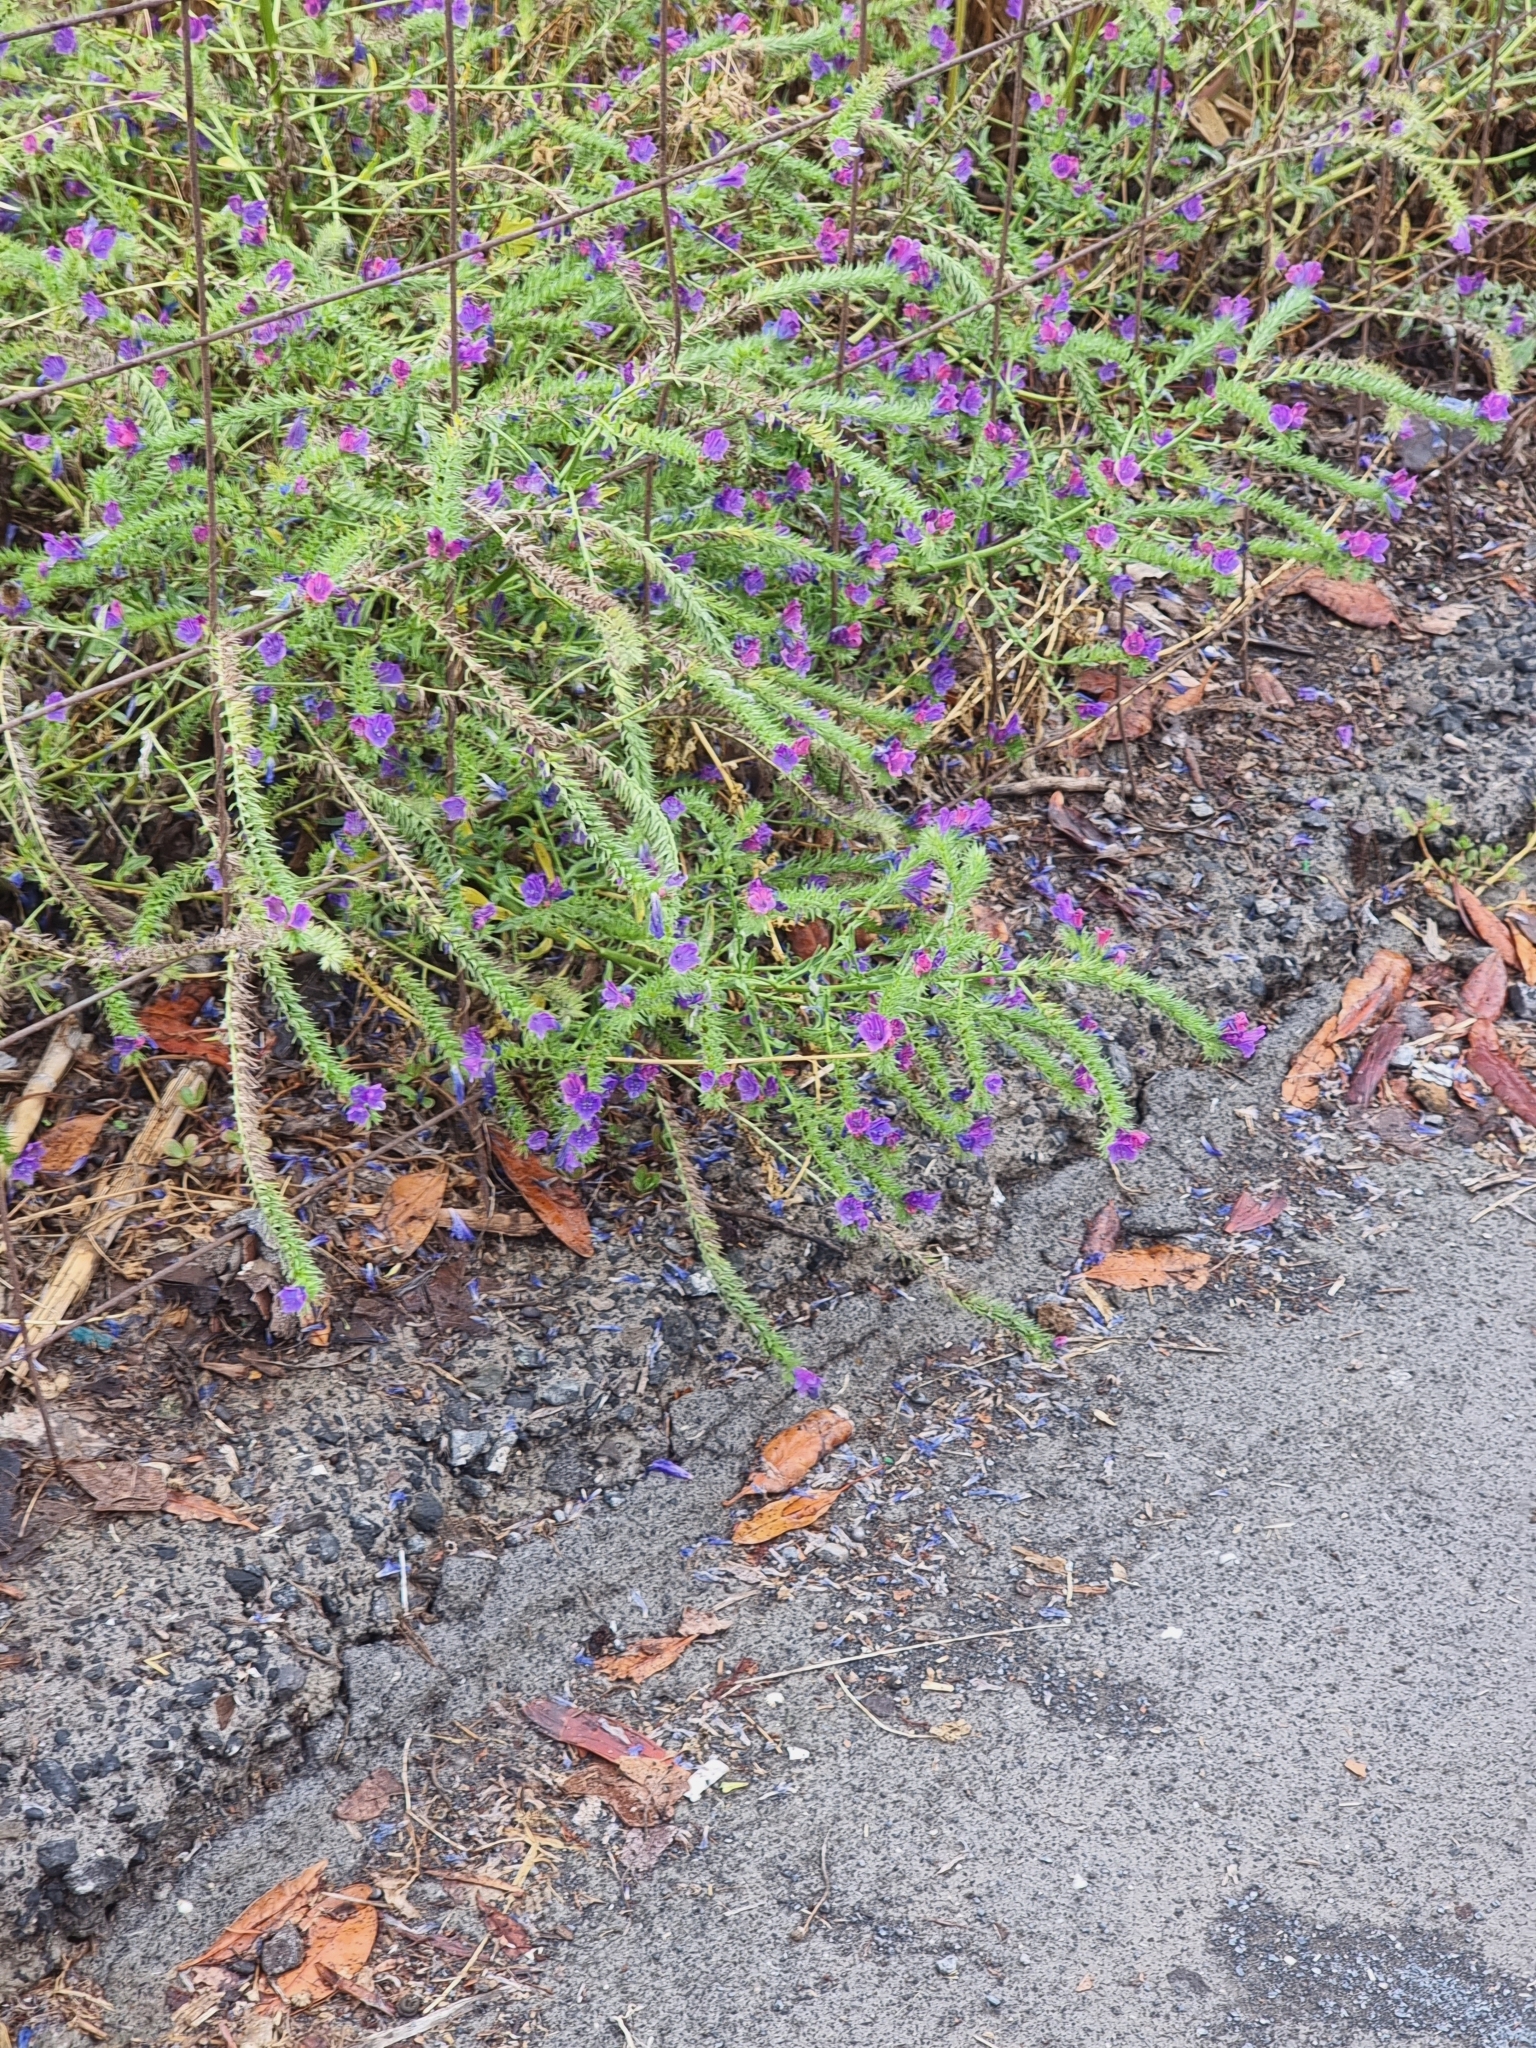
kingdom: Plantae
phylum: Tracheophyta
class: Magnoliopsida
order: Boraginales
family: Boraginaceae
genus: Echium
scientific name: Echium plantagineum
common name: Purple viper's-bugloss
